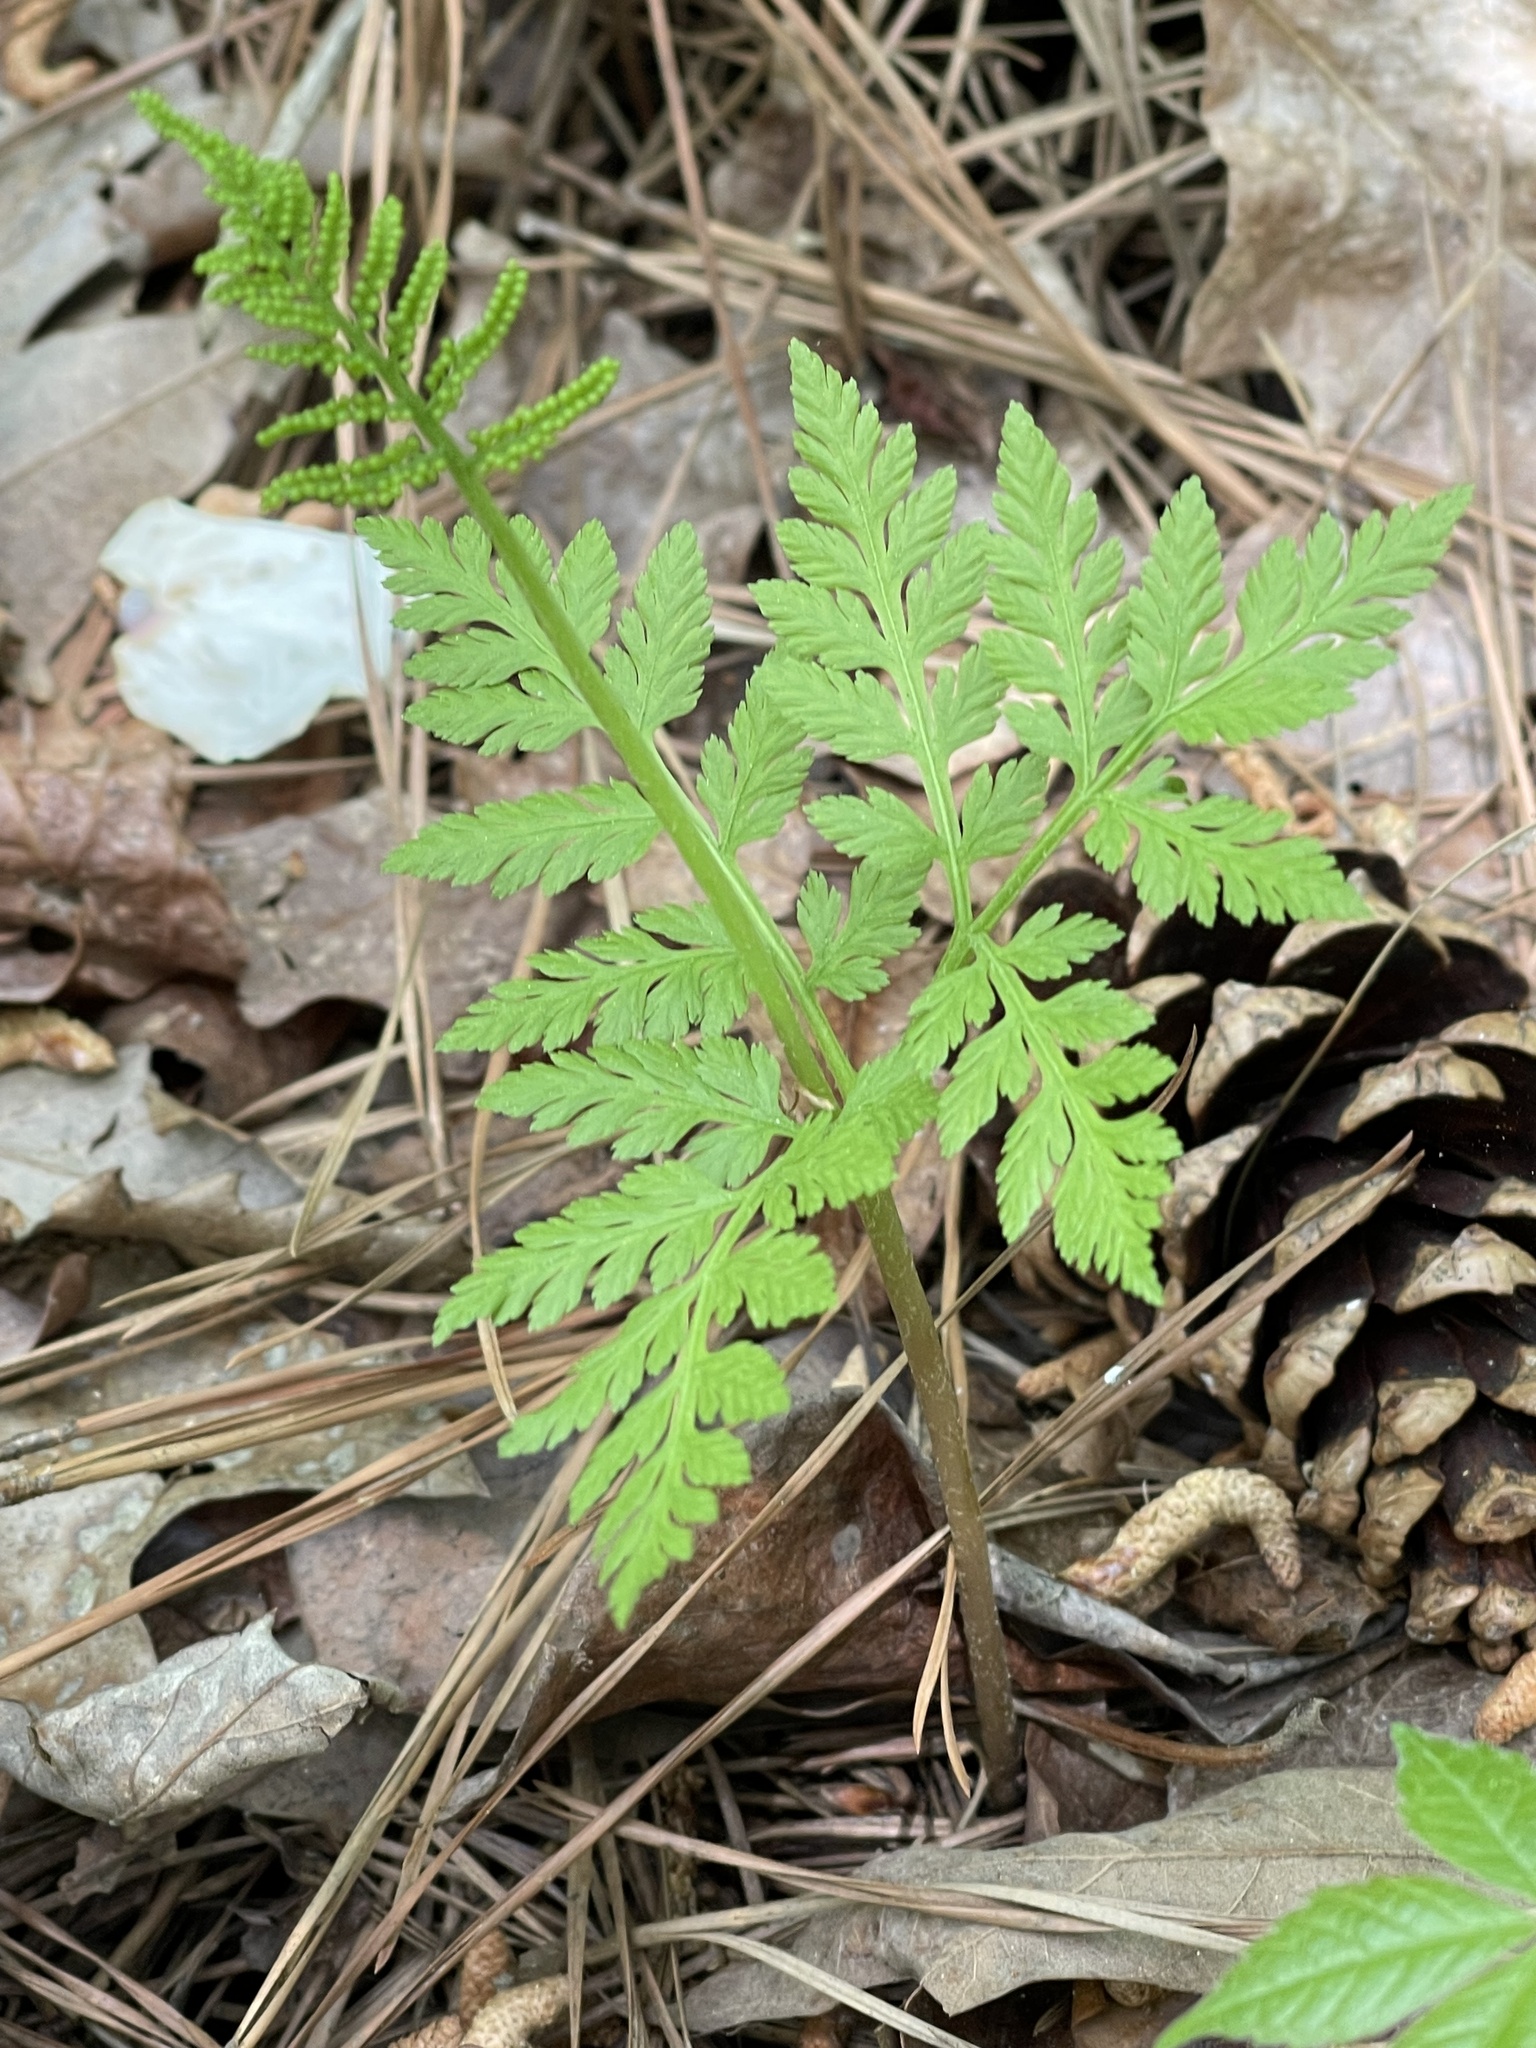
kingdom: Plantae
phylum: Tracheophyta
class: Polypodiopsida
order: Ophioglossales
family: Ophioglossaceae
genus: Botrypus
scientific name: Botrypus virginianus
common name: Common grapefern
